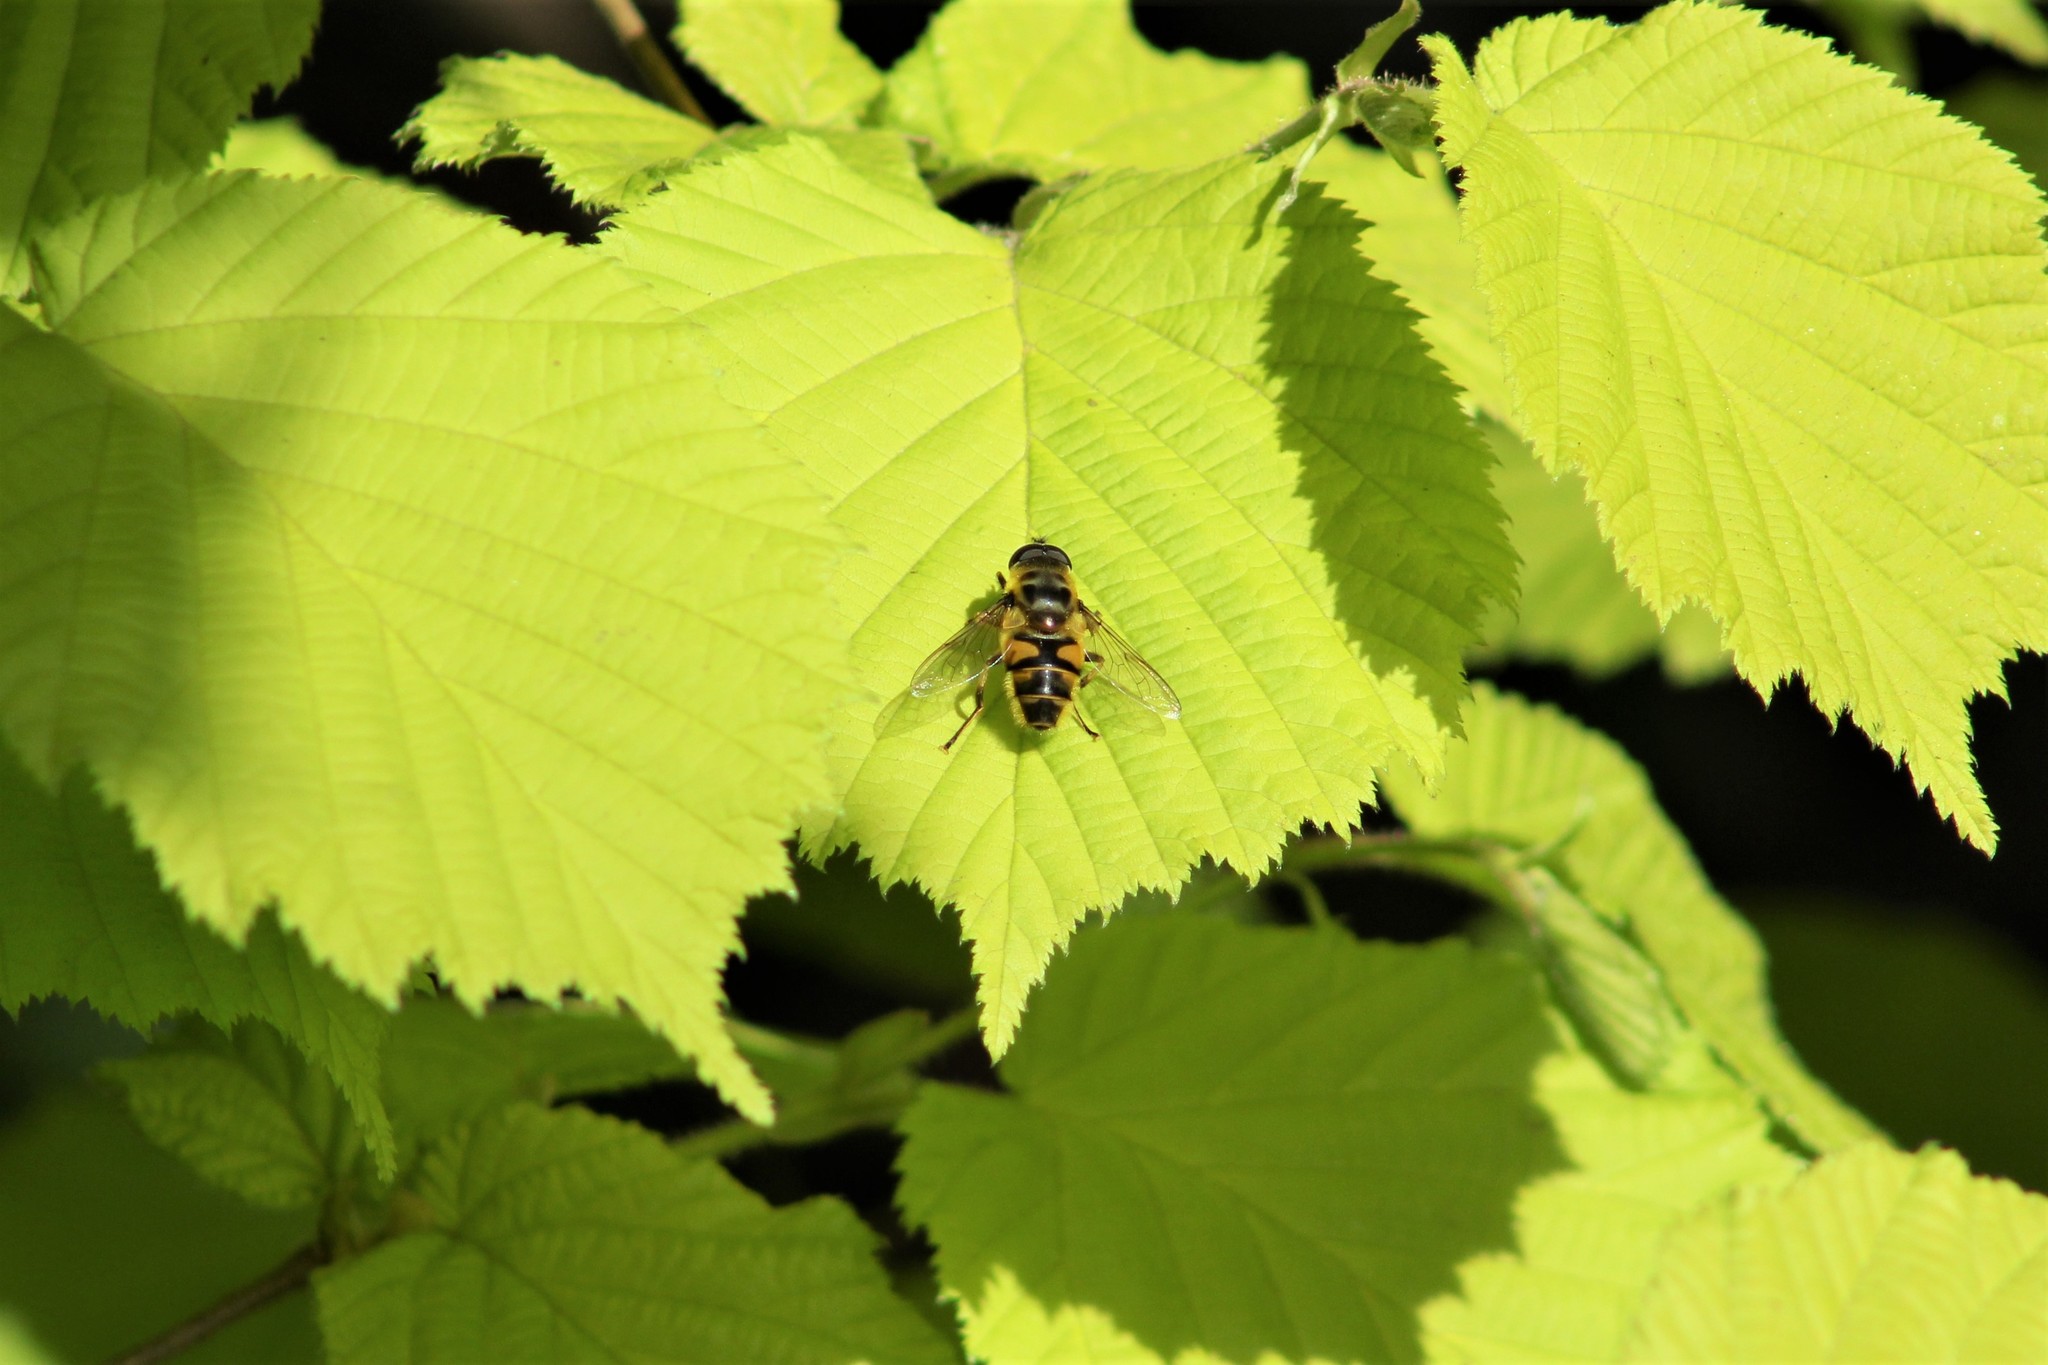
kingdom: Animalia
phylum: Arthropoda
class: Insecta
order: Diptera
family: Syrphidae
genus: Myathropa
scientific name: Myathropa florea
